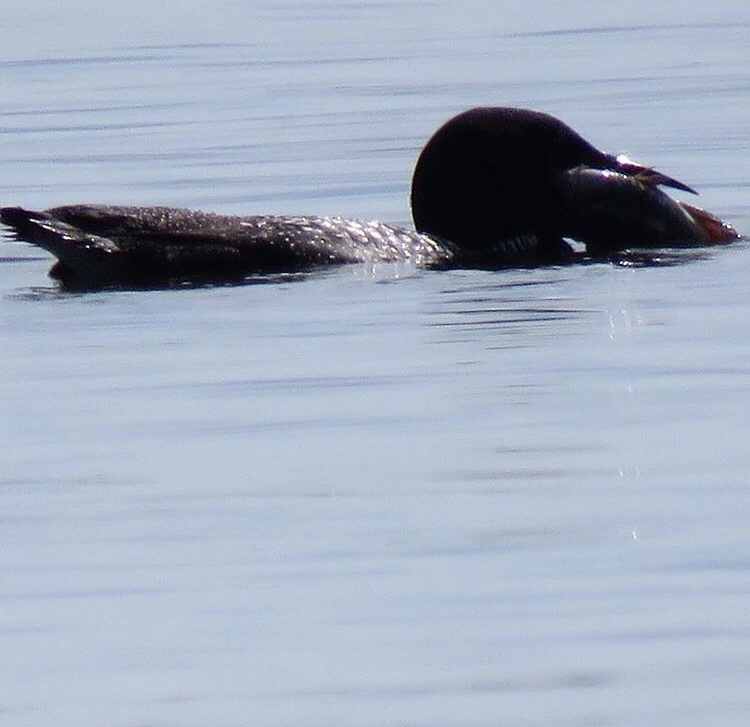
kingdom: Animalia
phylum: Chordata
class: Aves
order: Gaviiformes
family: Gaviidae
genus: Gavia
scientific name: Gavia immer
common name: Common loon
